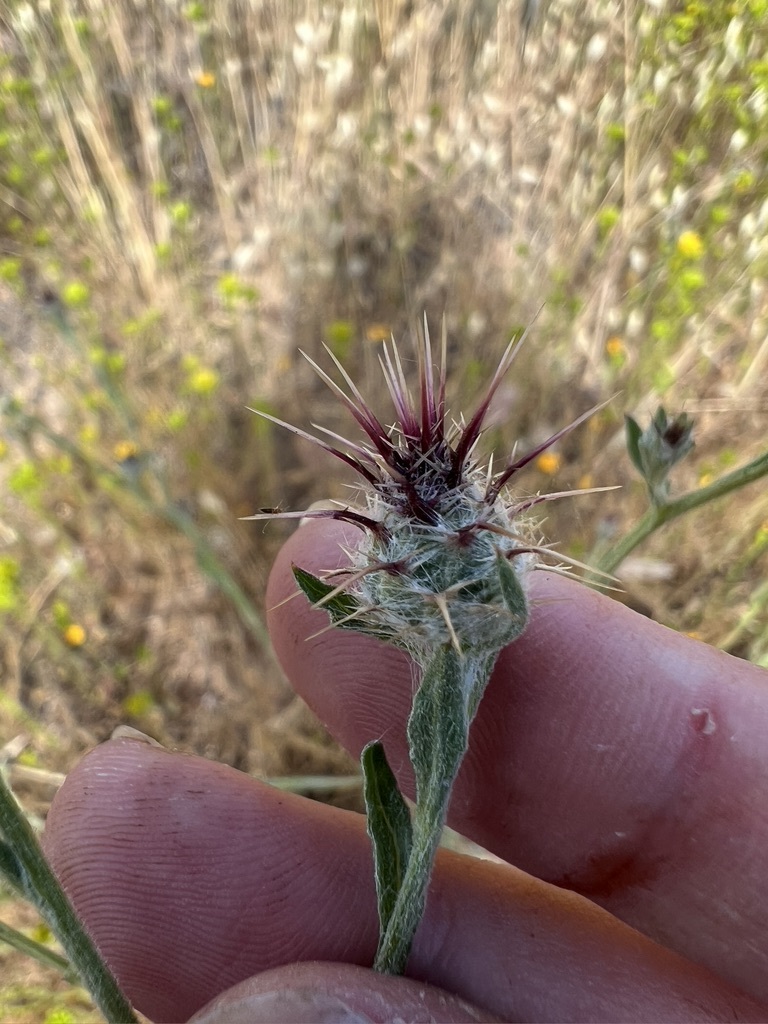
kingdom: Plantae
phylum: Tracheophyta
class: Magnoliopsida
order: Asterales
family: Asteraceae
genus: Centaurea
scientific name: Centaurea melitensis
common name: Maltese star-thistle
